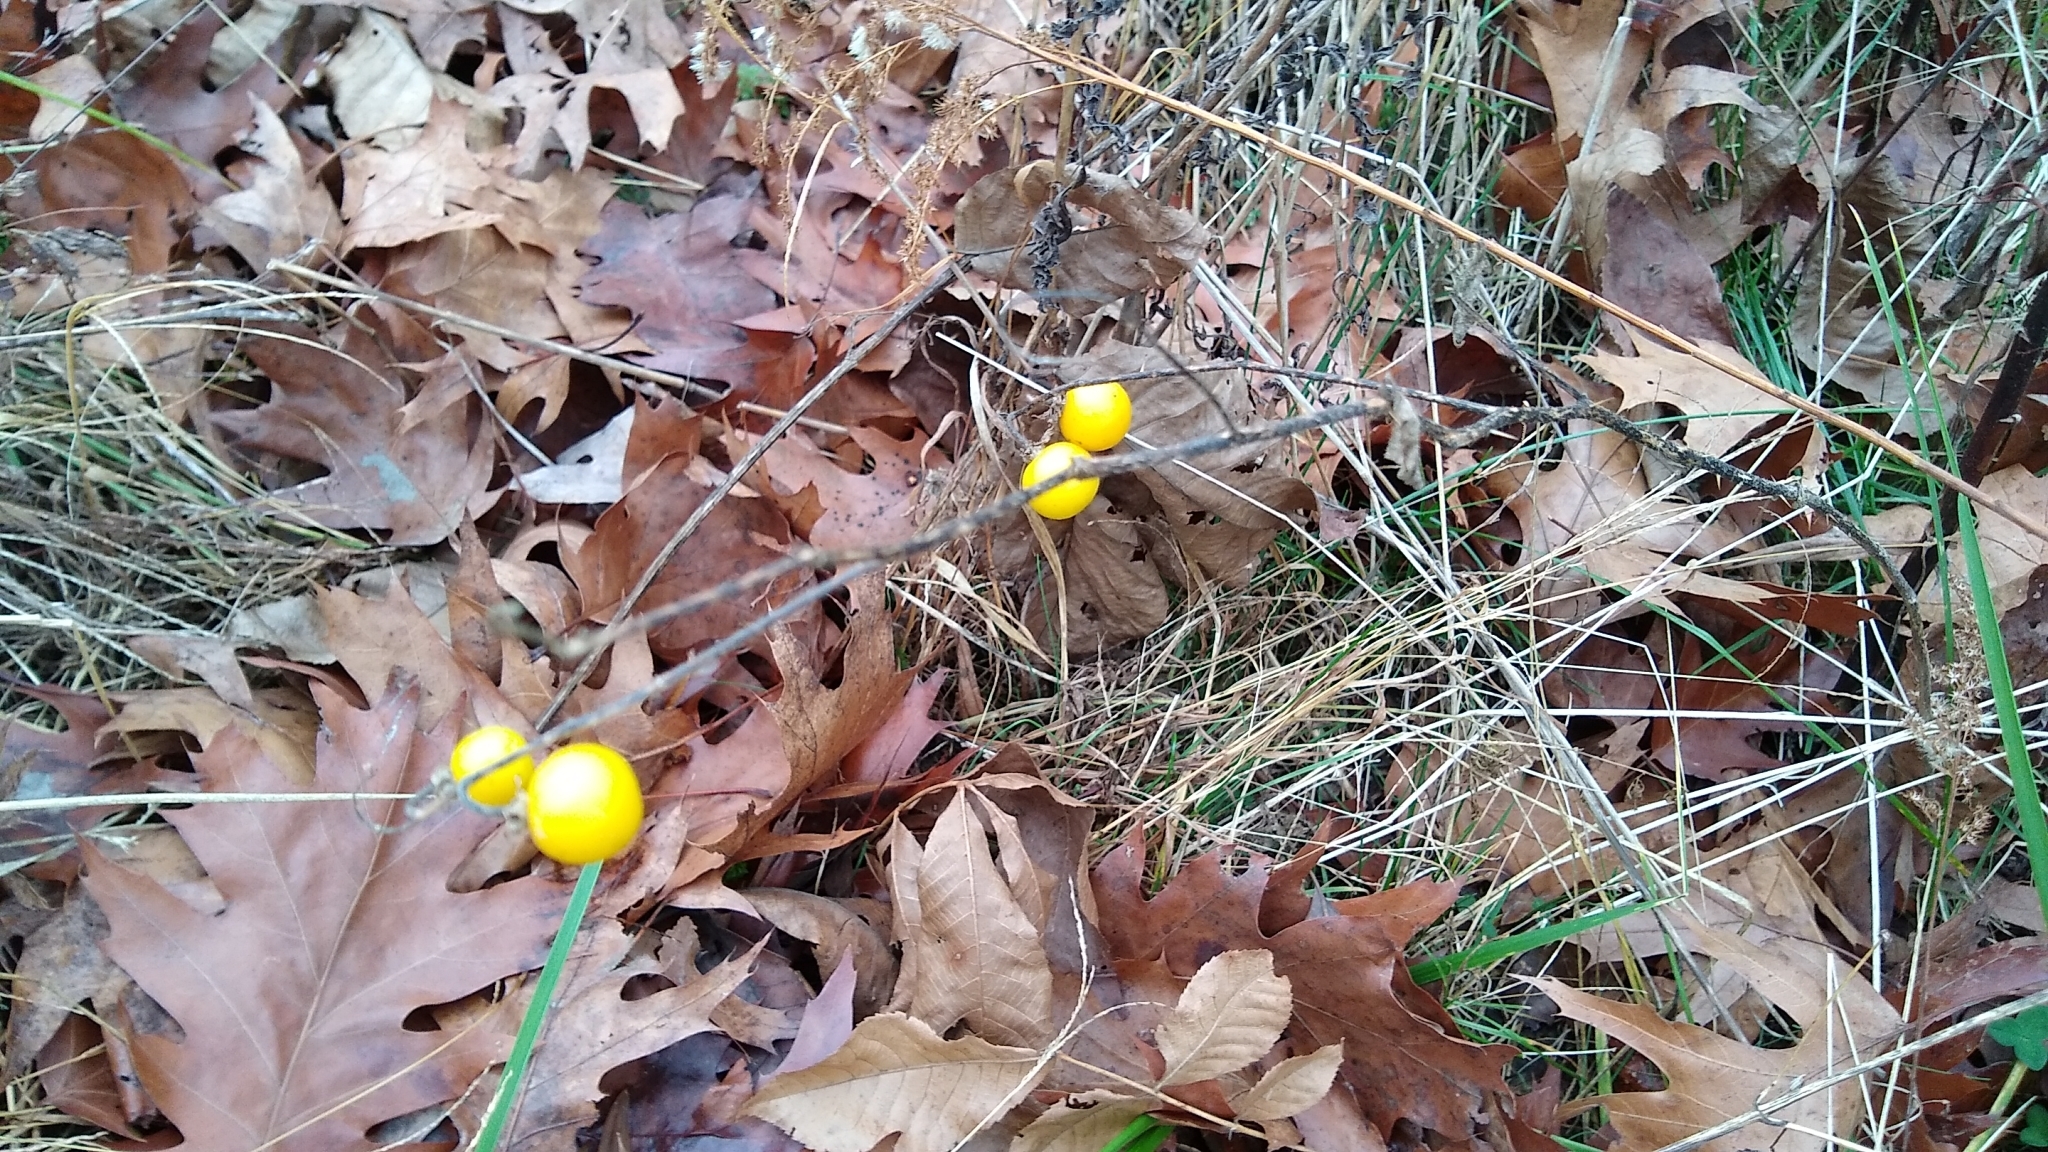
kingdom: Plantae
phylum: Tracheophyta
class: Magnoliopsida
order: Solanales
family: Solanaceae
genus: Solanum
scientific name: Solanum carolinense
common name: Horse-nettle
